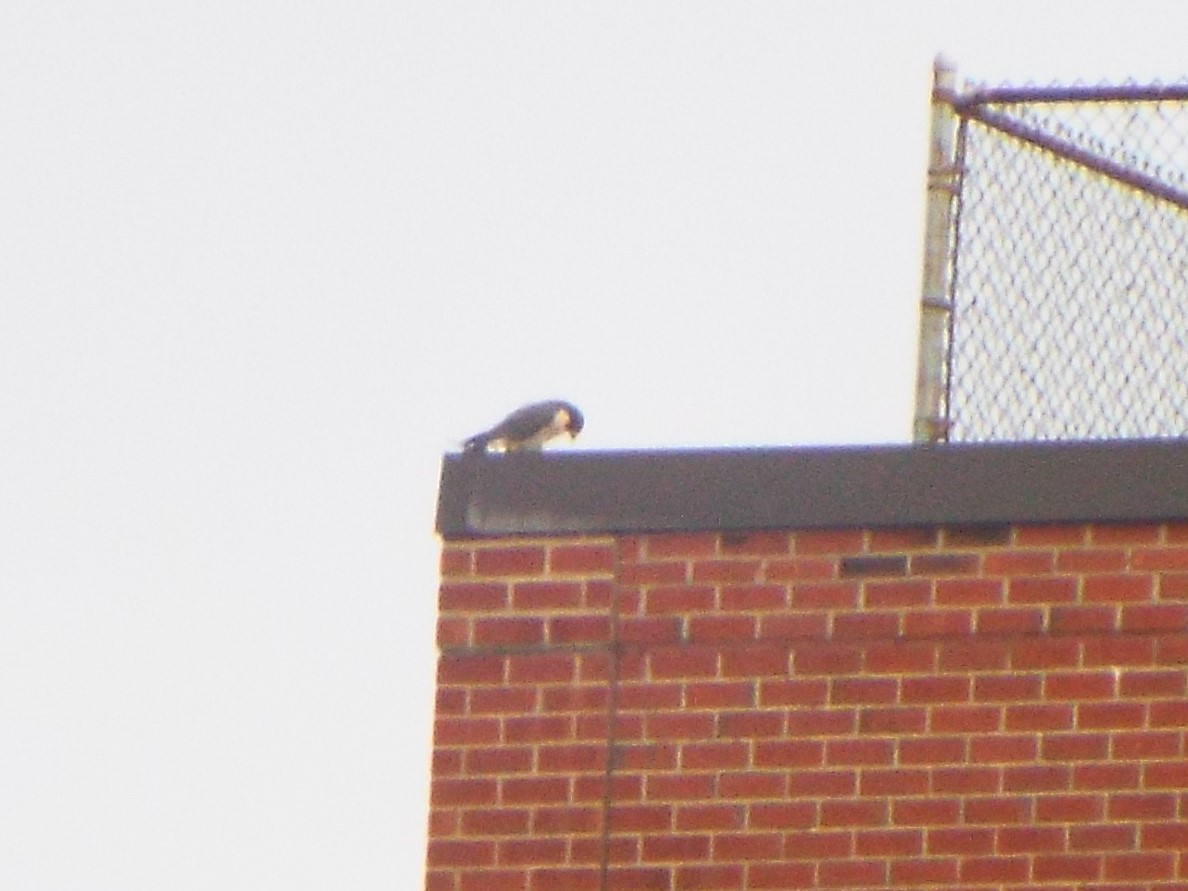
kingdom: Animalia
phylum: Chordata
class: Aves
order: Falconiformes
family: Falconidae
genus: Falco
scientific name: Falco peregrinus
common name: Peregrine falcon
